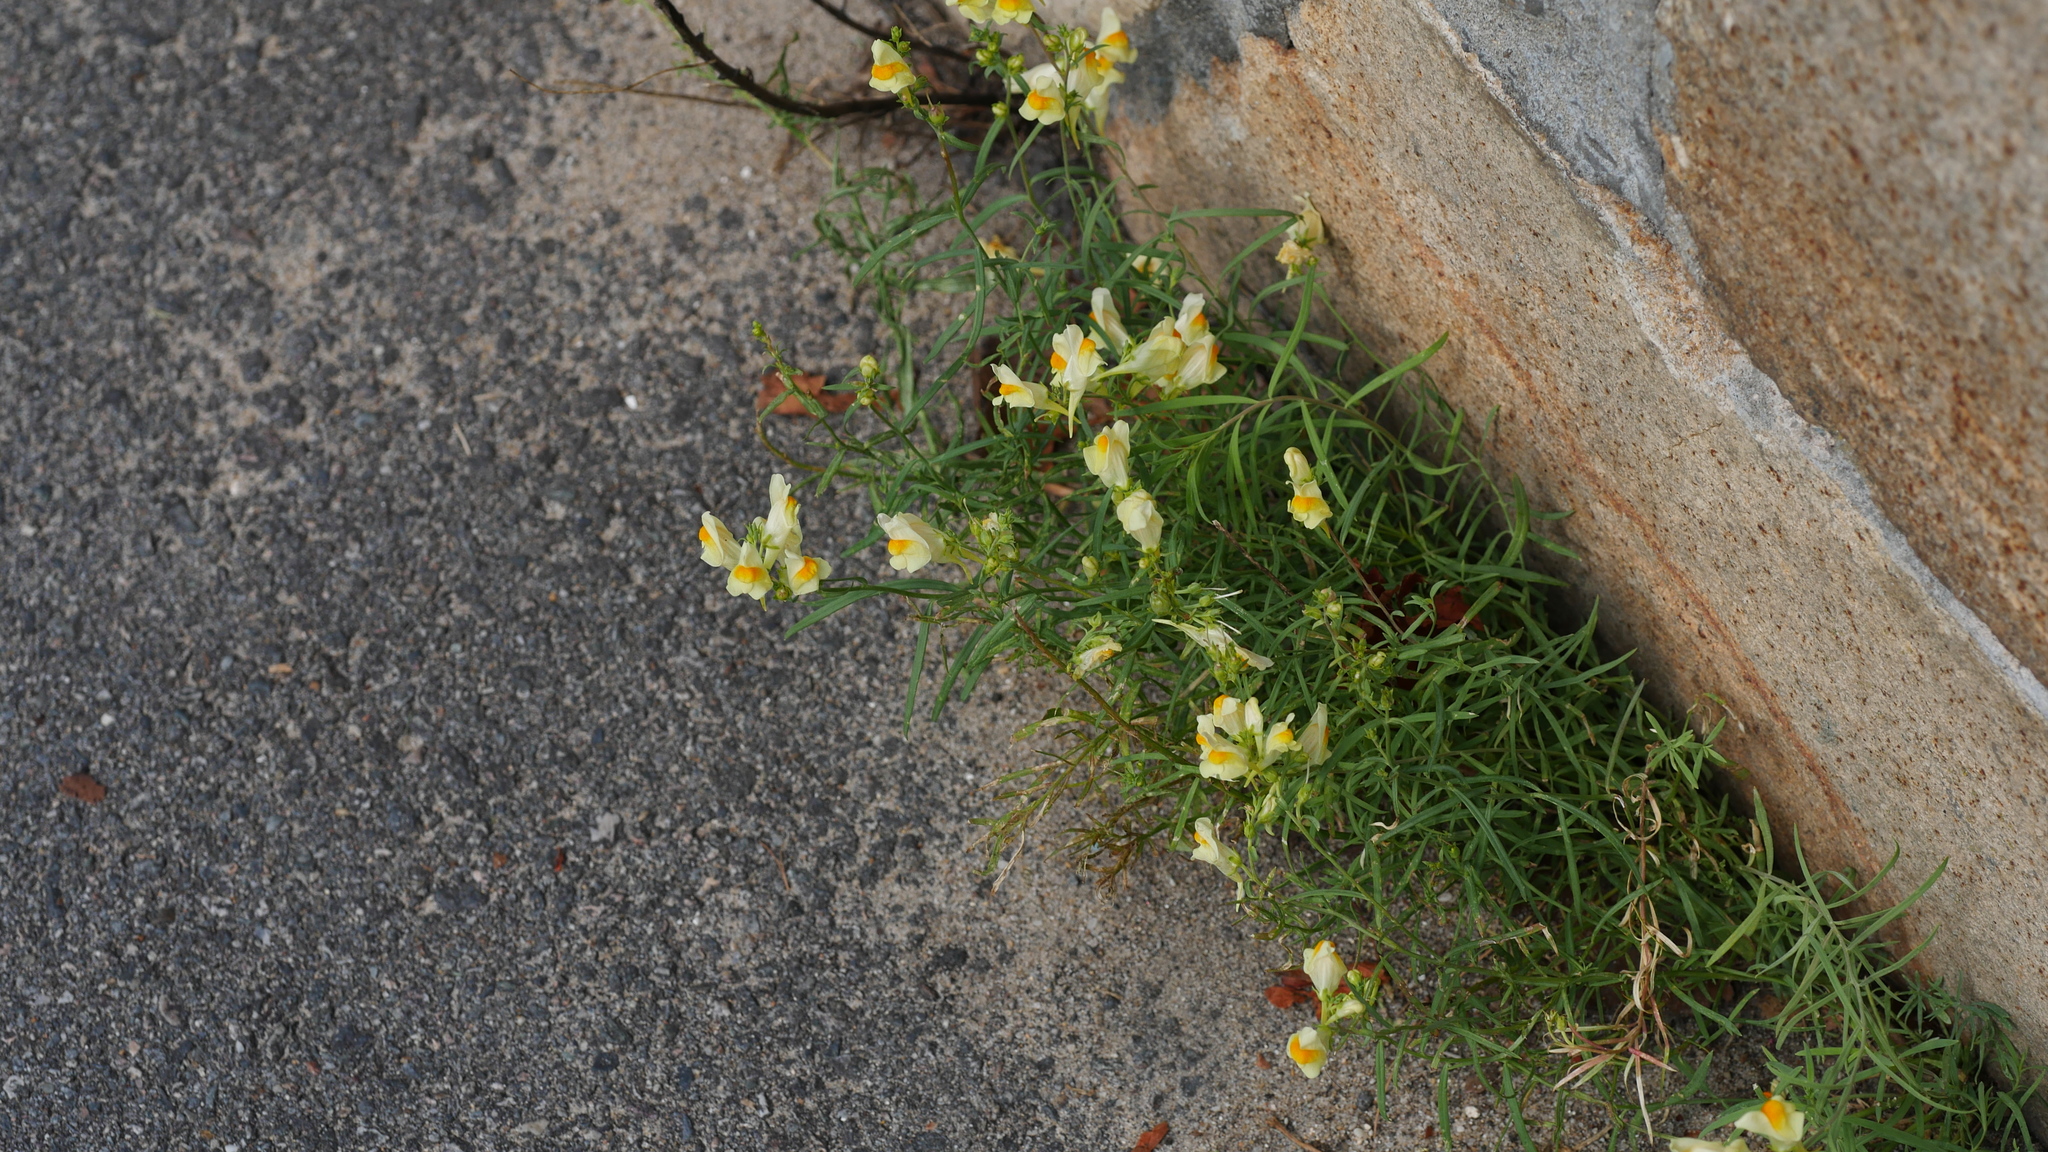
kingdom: Plantae
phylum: Tracheophyta
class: Magnoliopsida
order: Lamiales
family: Plantaginaceae
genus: Linaria
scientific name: Linaria vulgaris
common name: Butter and eggs
